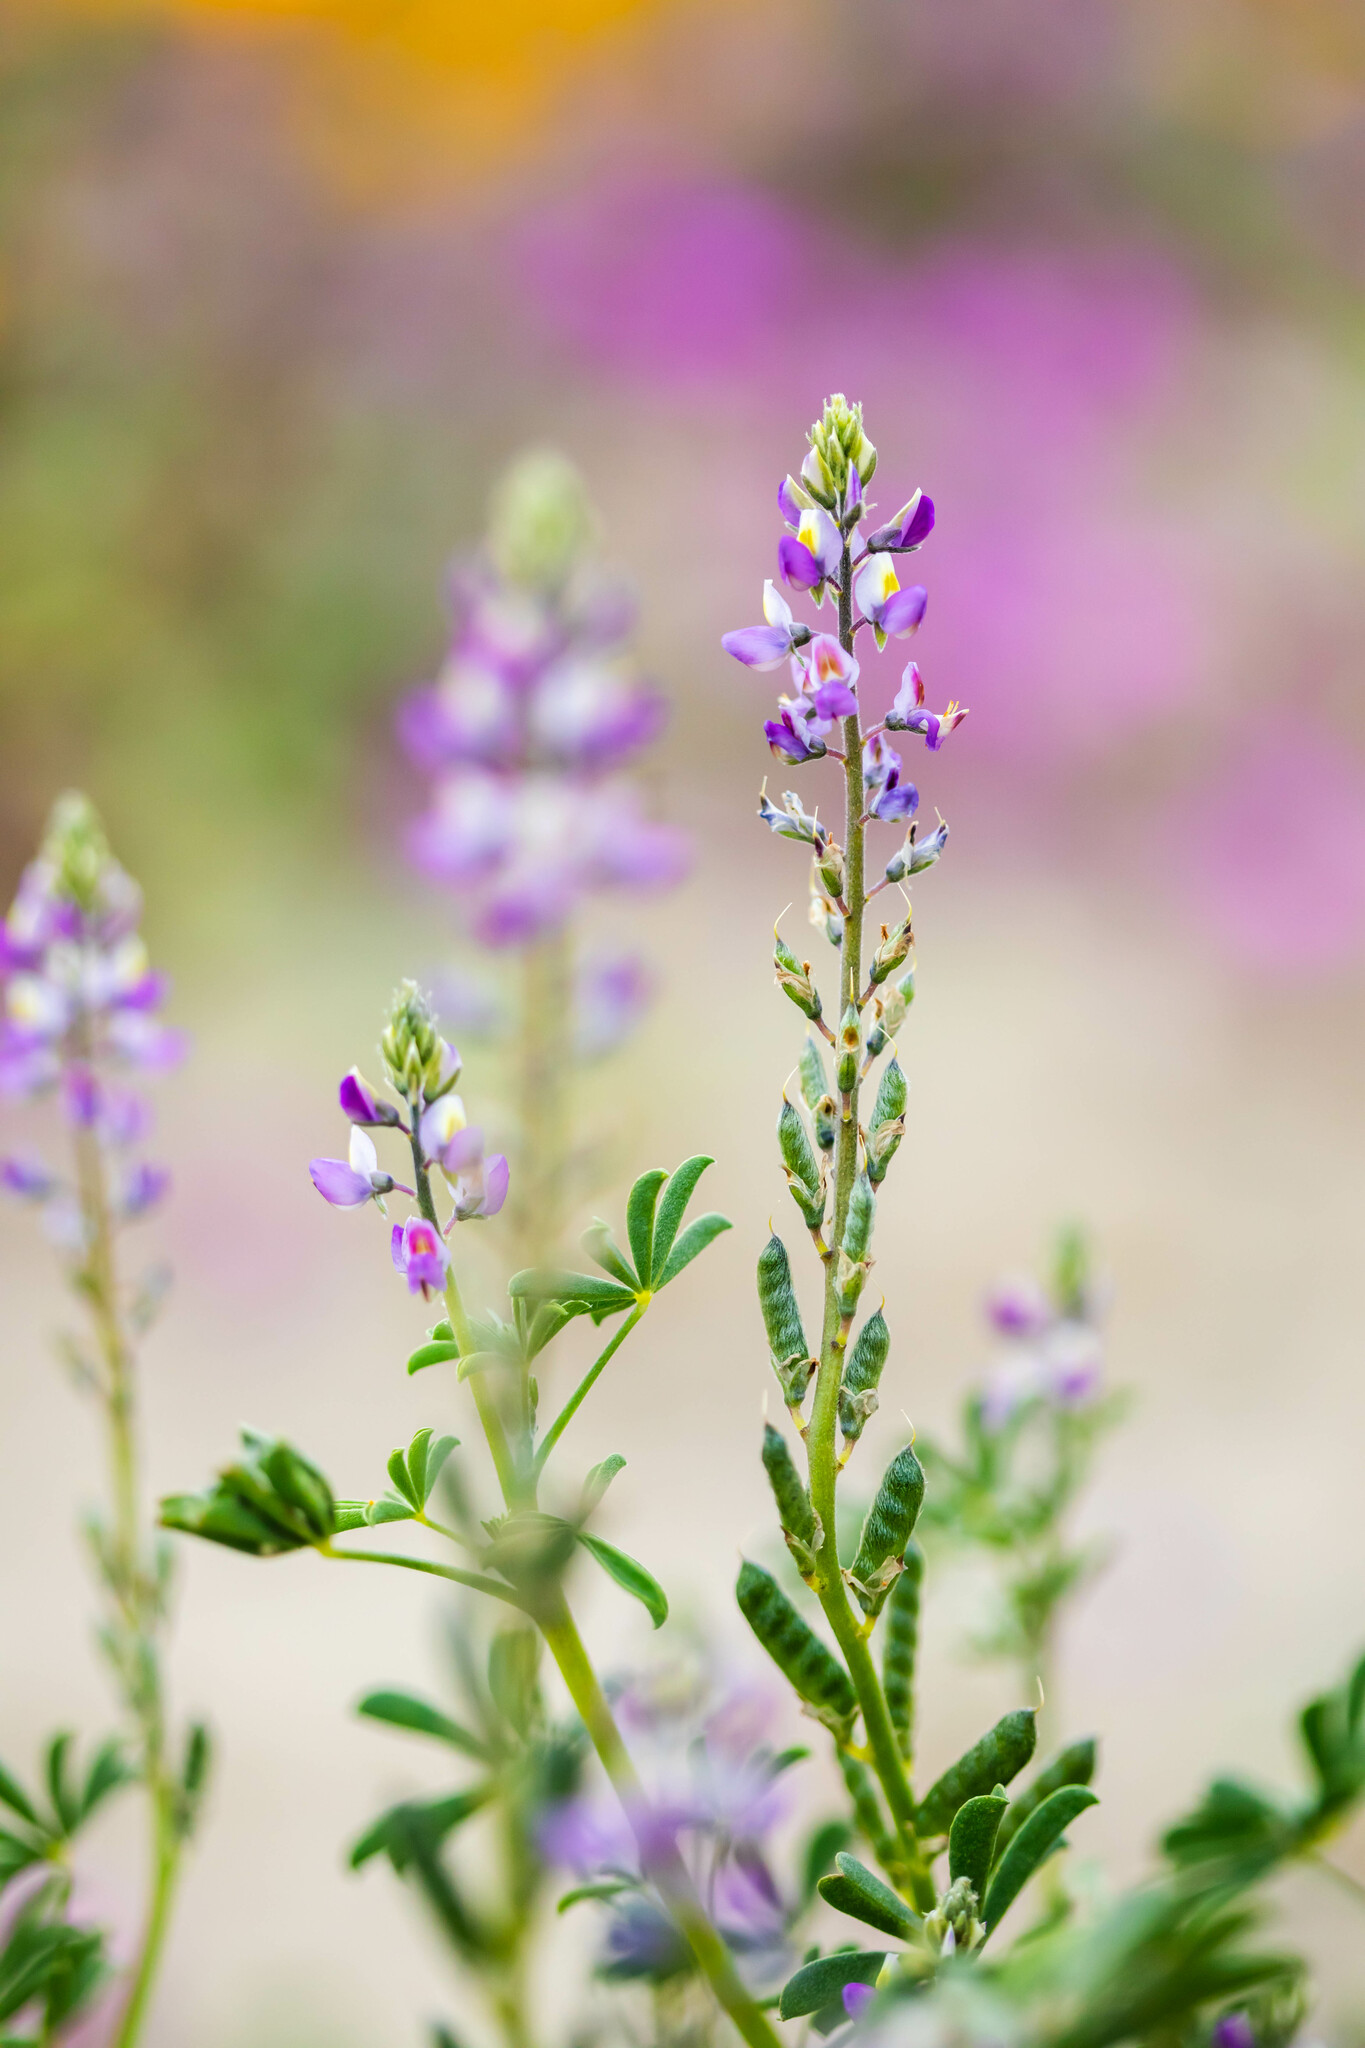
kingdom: Plantae
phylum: Tracheophyta
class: Magnoliopsida
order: Fabales
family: Fabaceae
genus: Lupinus
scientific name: Lupinus arizonicus
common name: Arizona lupine
